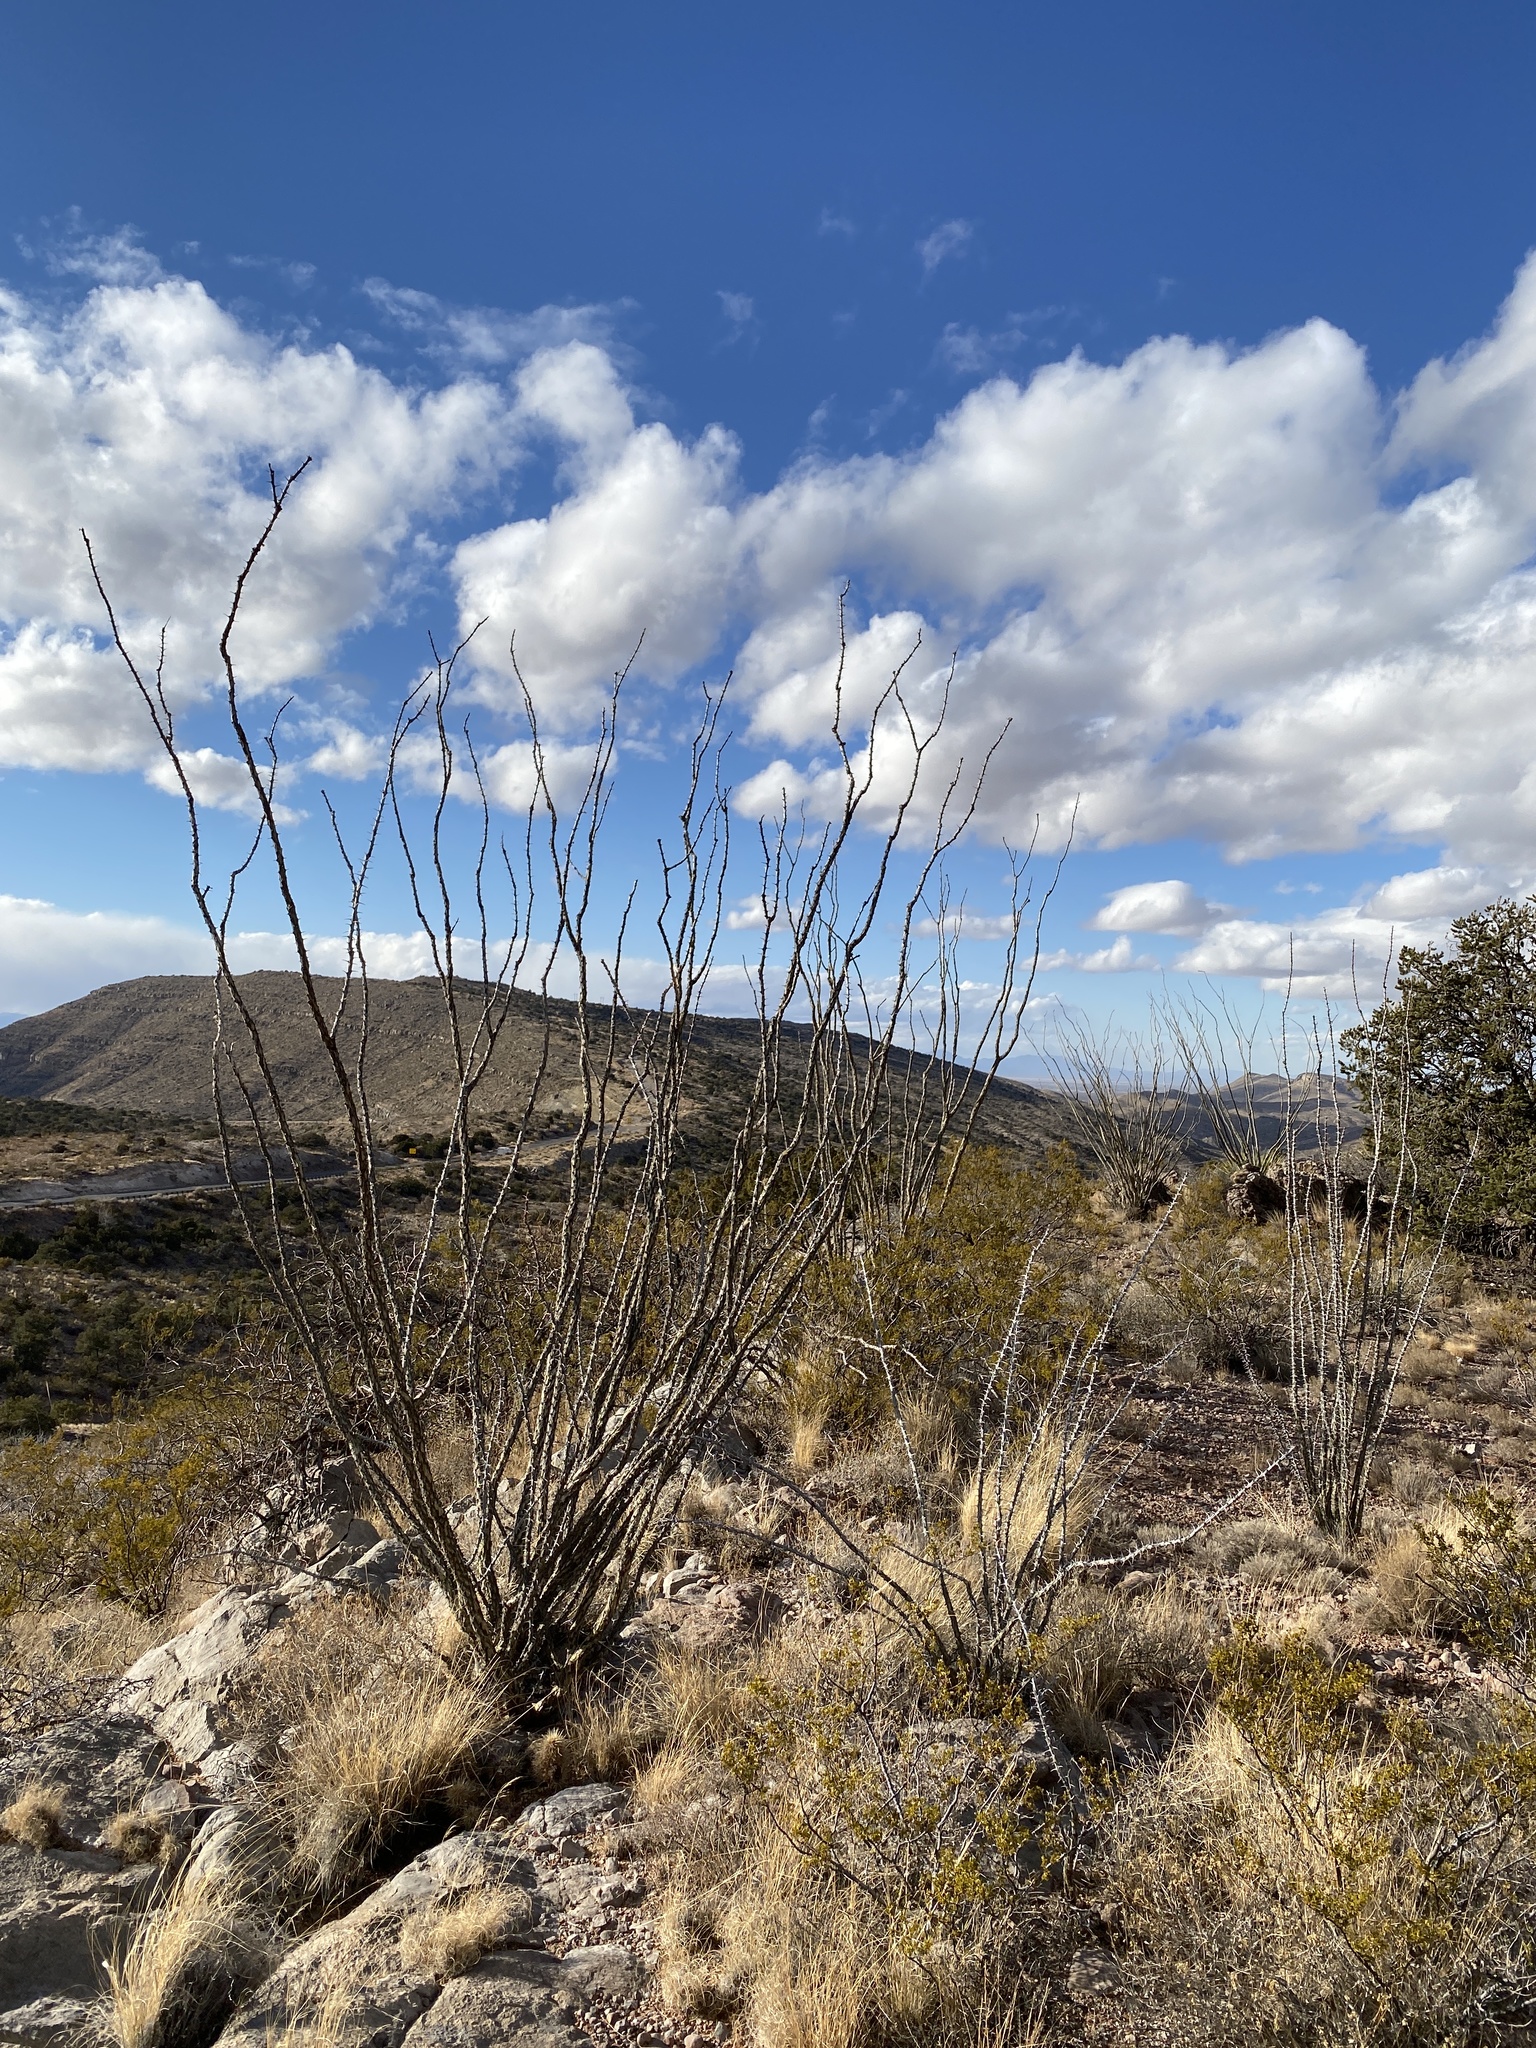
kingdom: Plantae
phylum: Tracheophyta
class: Magnoliopsida
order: Ericales
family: Fouquieriaceae
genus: Fouquieria
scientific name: Fouquieria splendens
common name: Vine-cactus
